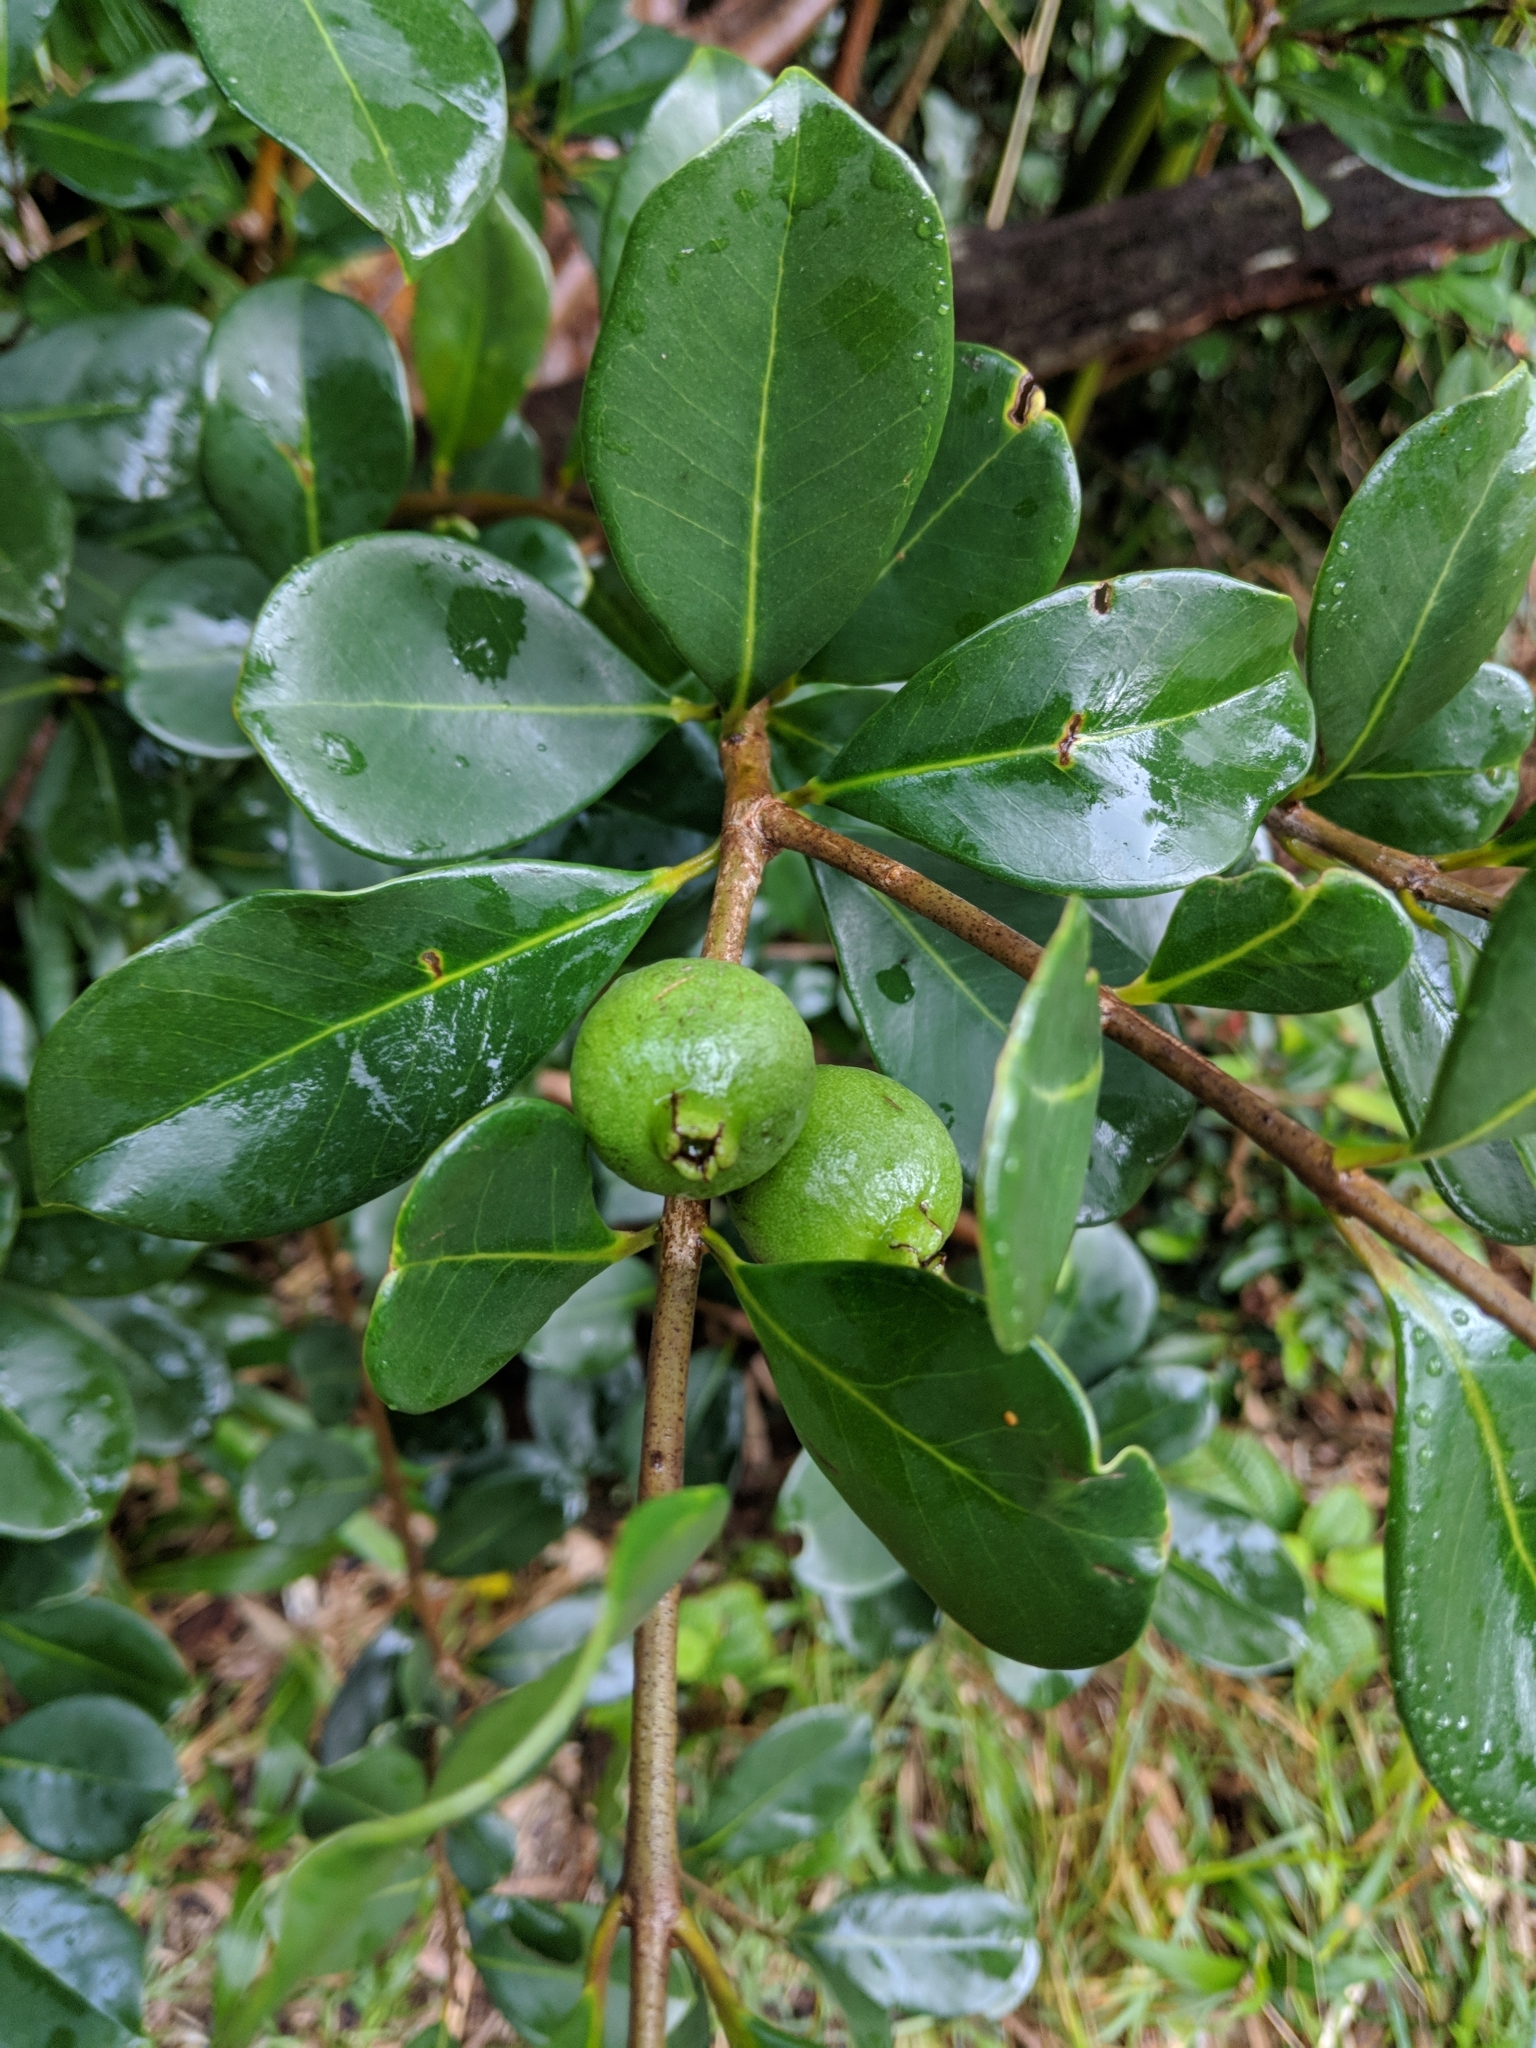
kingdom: Plantae
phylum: Tracheophyta
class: Magnoliopsida
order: Myrtales
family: Myrtaceae
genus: Psidium
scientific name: Psidium cattleianum
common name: Strawberry guava
